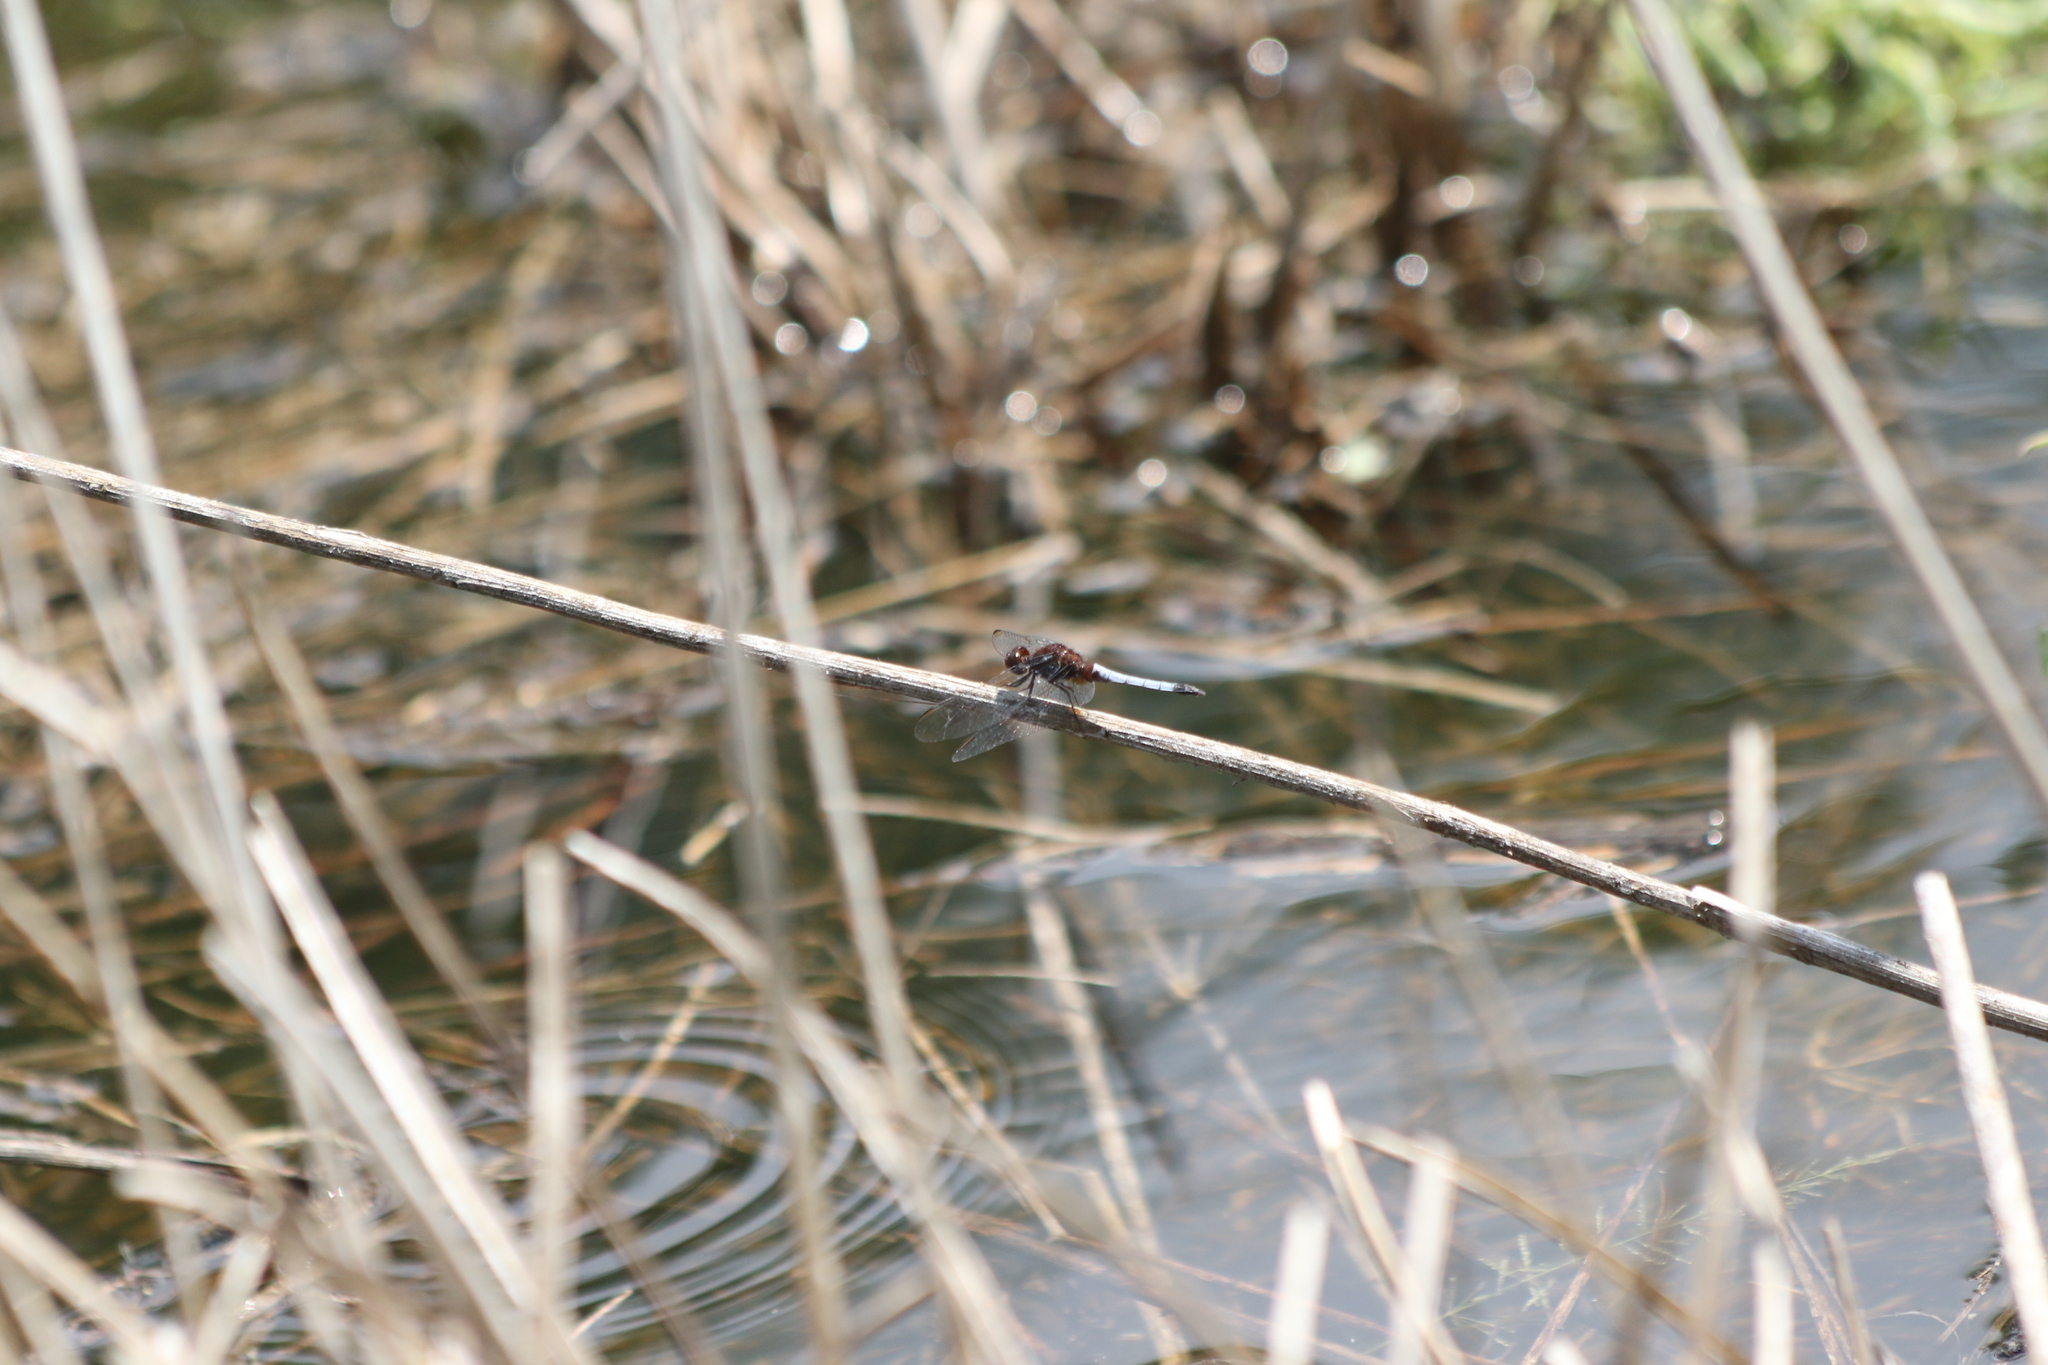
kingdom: Animalia
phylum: Arthropoda
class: Insecta
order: Odonata
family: Libellulidae
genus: Erythrodiplax
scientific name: Erythrodiplax fusca
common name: Red-faced dragonlet
